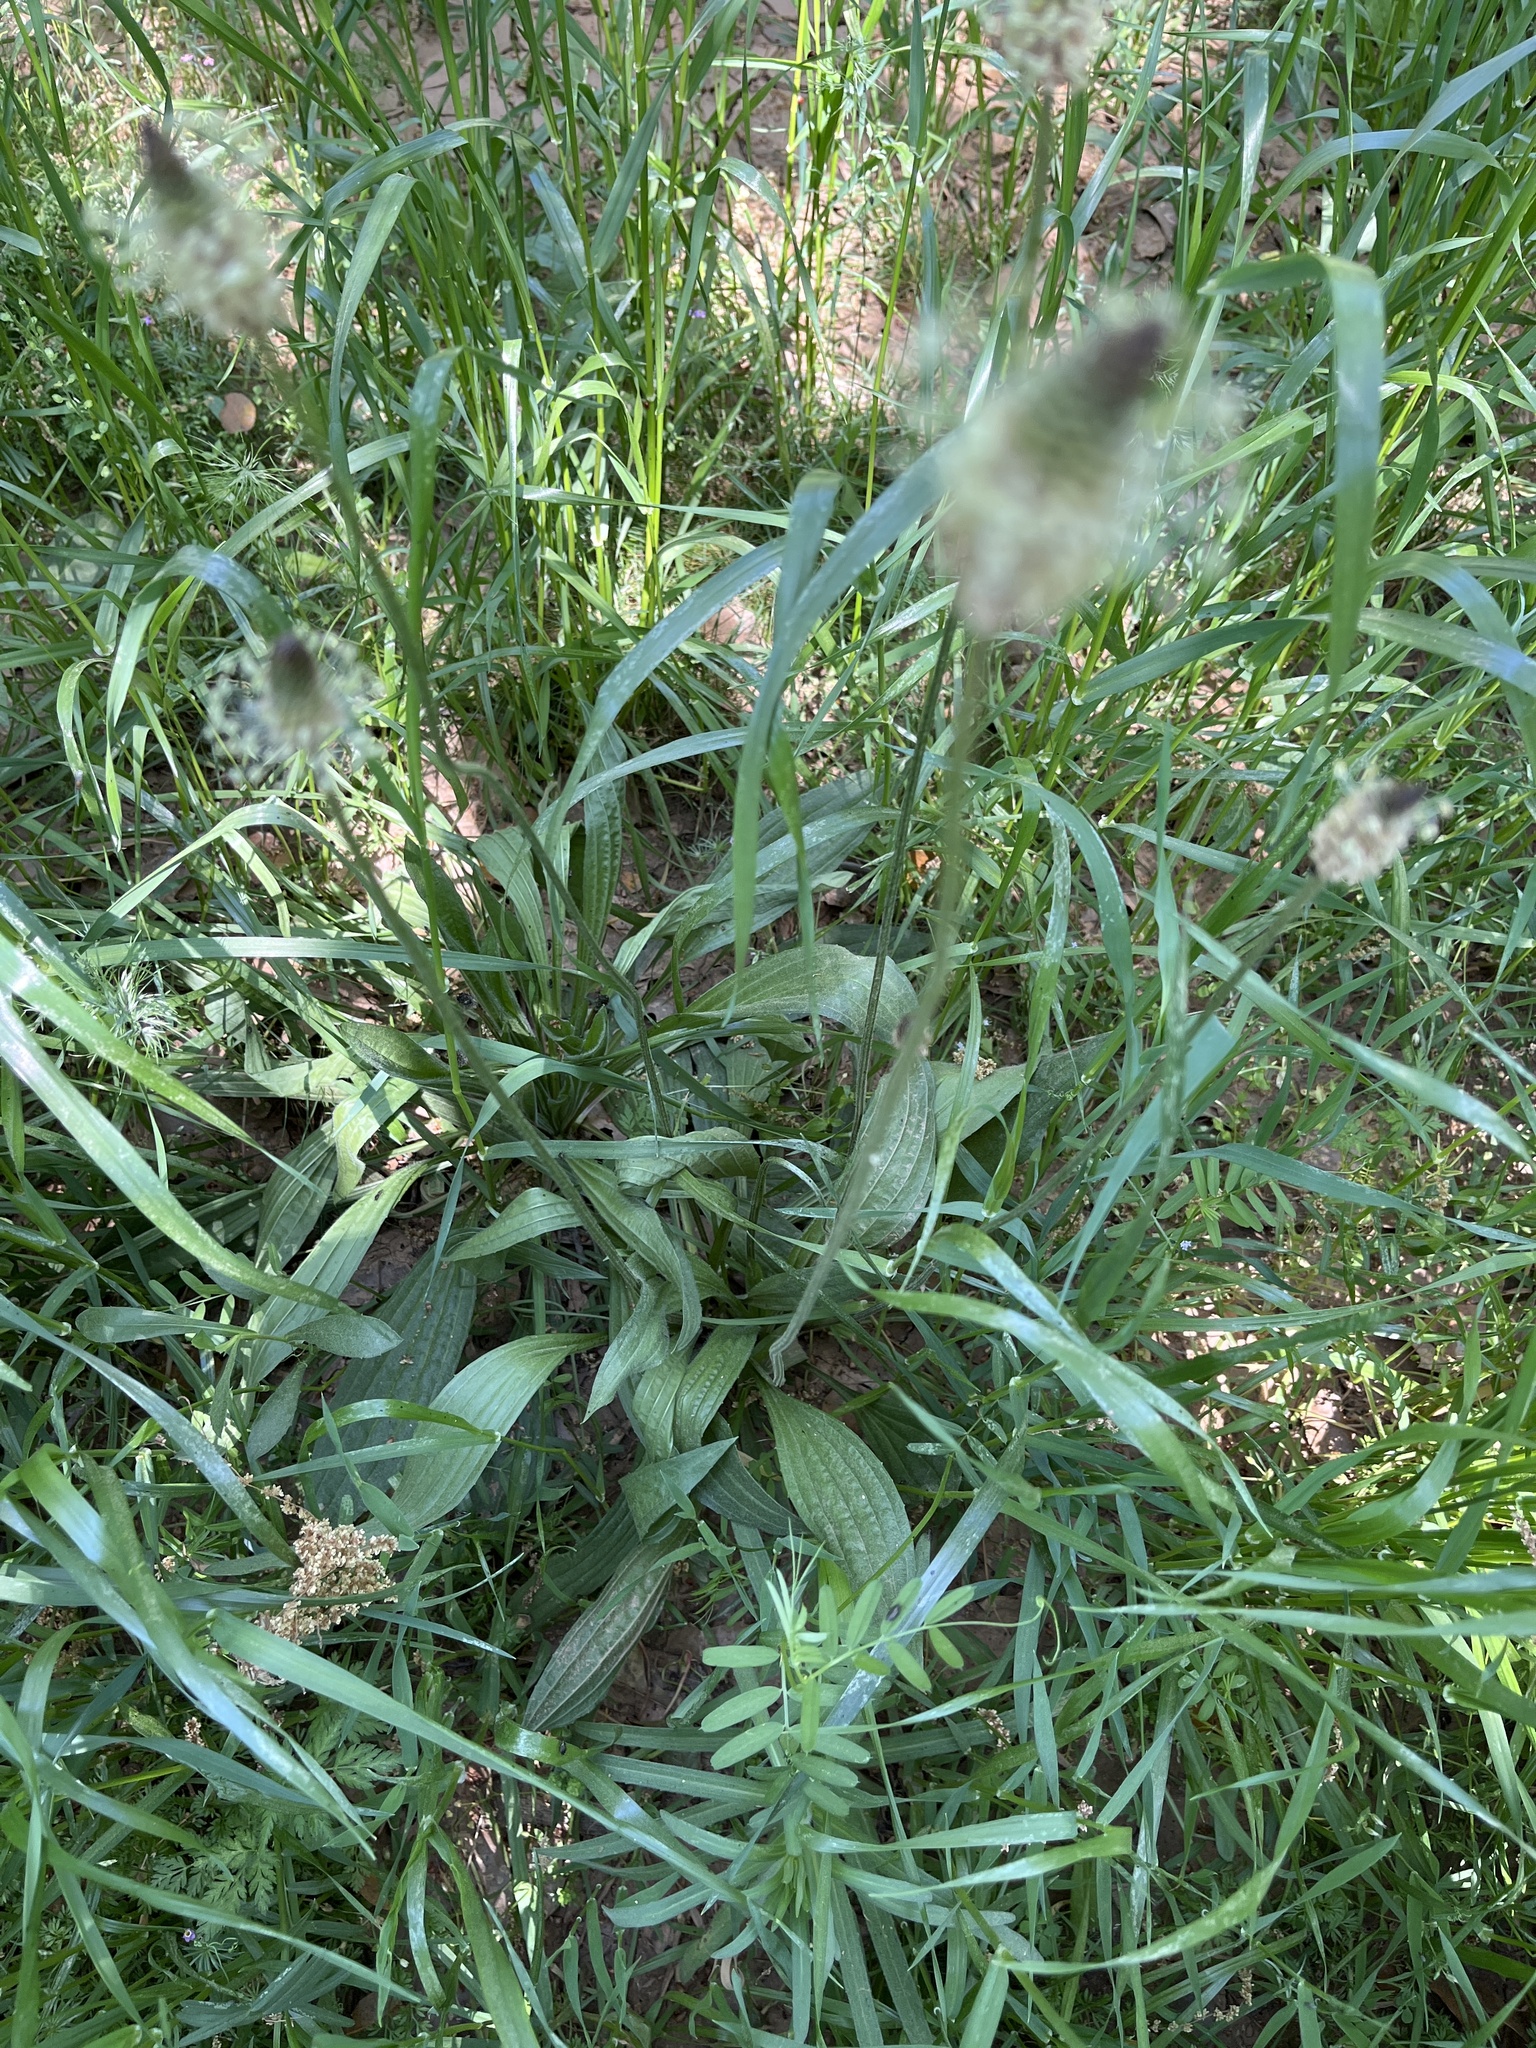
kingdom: Plantae
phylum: Tracheophyta
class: Magnoliopsida
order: Lamiales
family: Plantaginaceae
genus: Plantago
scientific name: Plantago lanceolata
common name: Ribwort plantain
